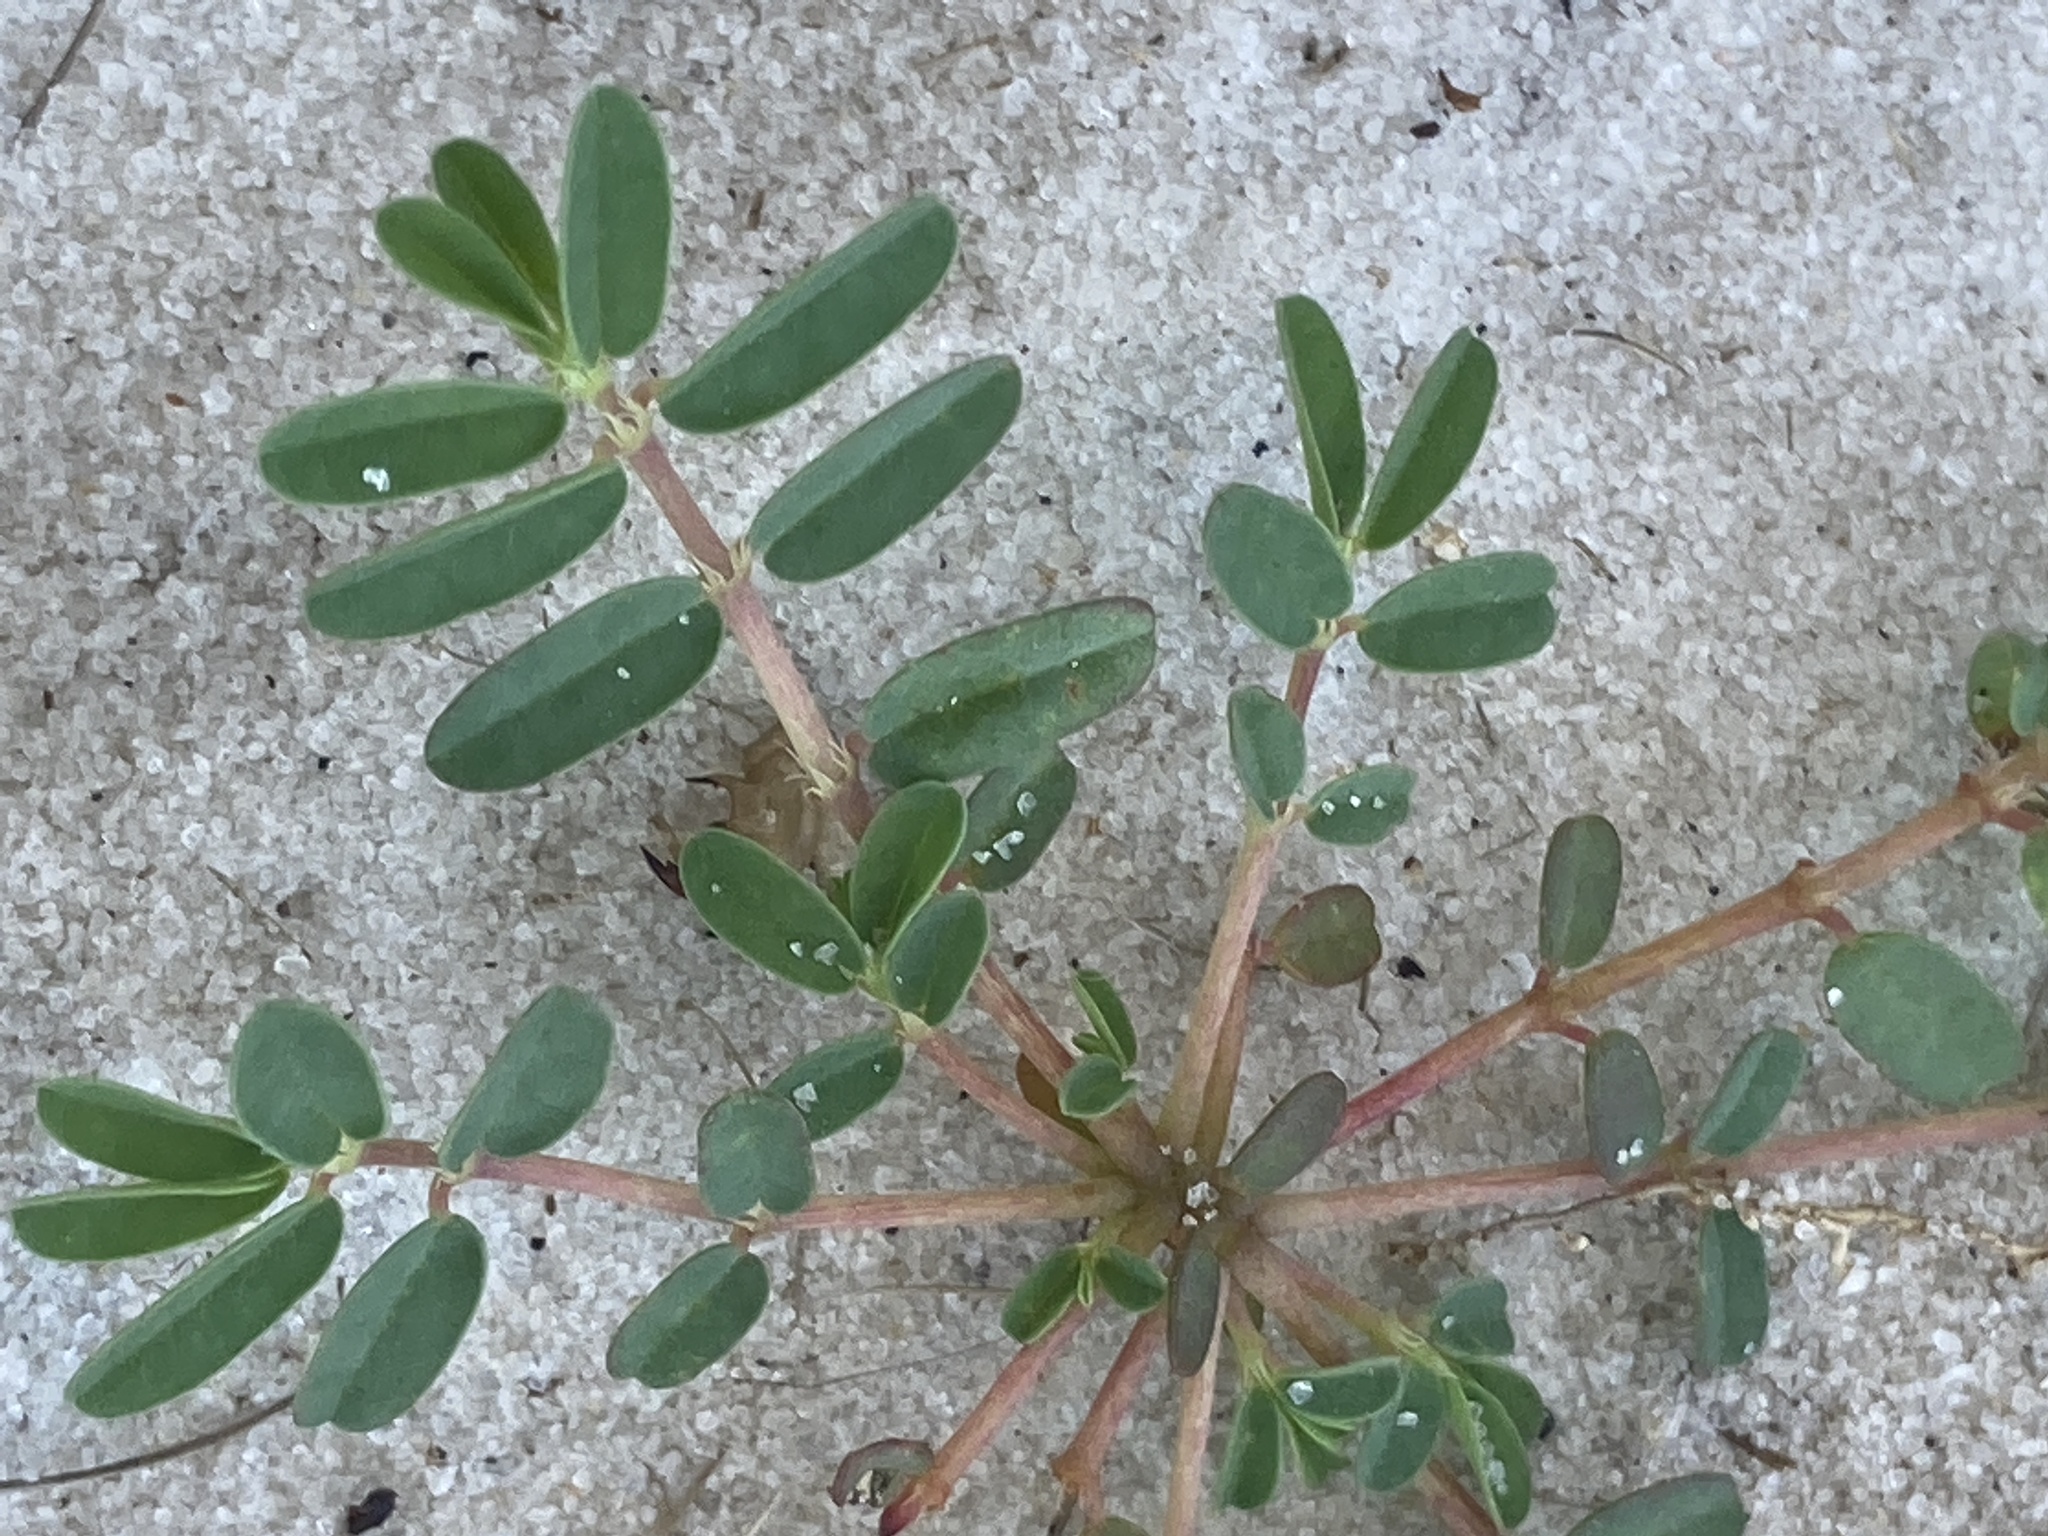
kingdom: Plantae
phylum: Tracheophyta
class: Magnoliopsida
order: Malpighiales
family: Euphorbiaceae
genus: Euphorbia
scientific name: Euphorbia bombensis
